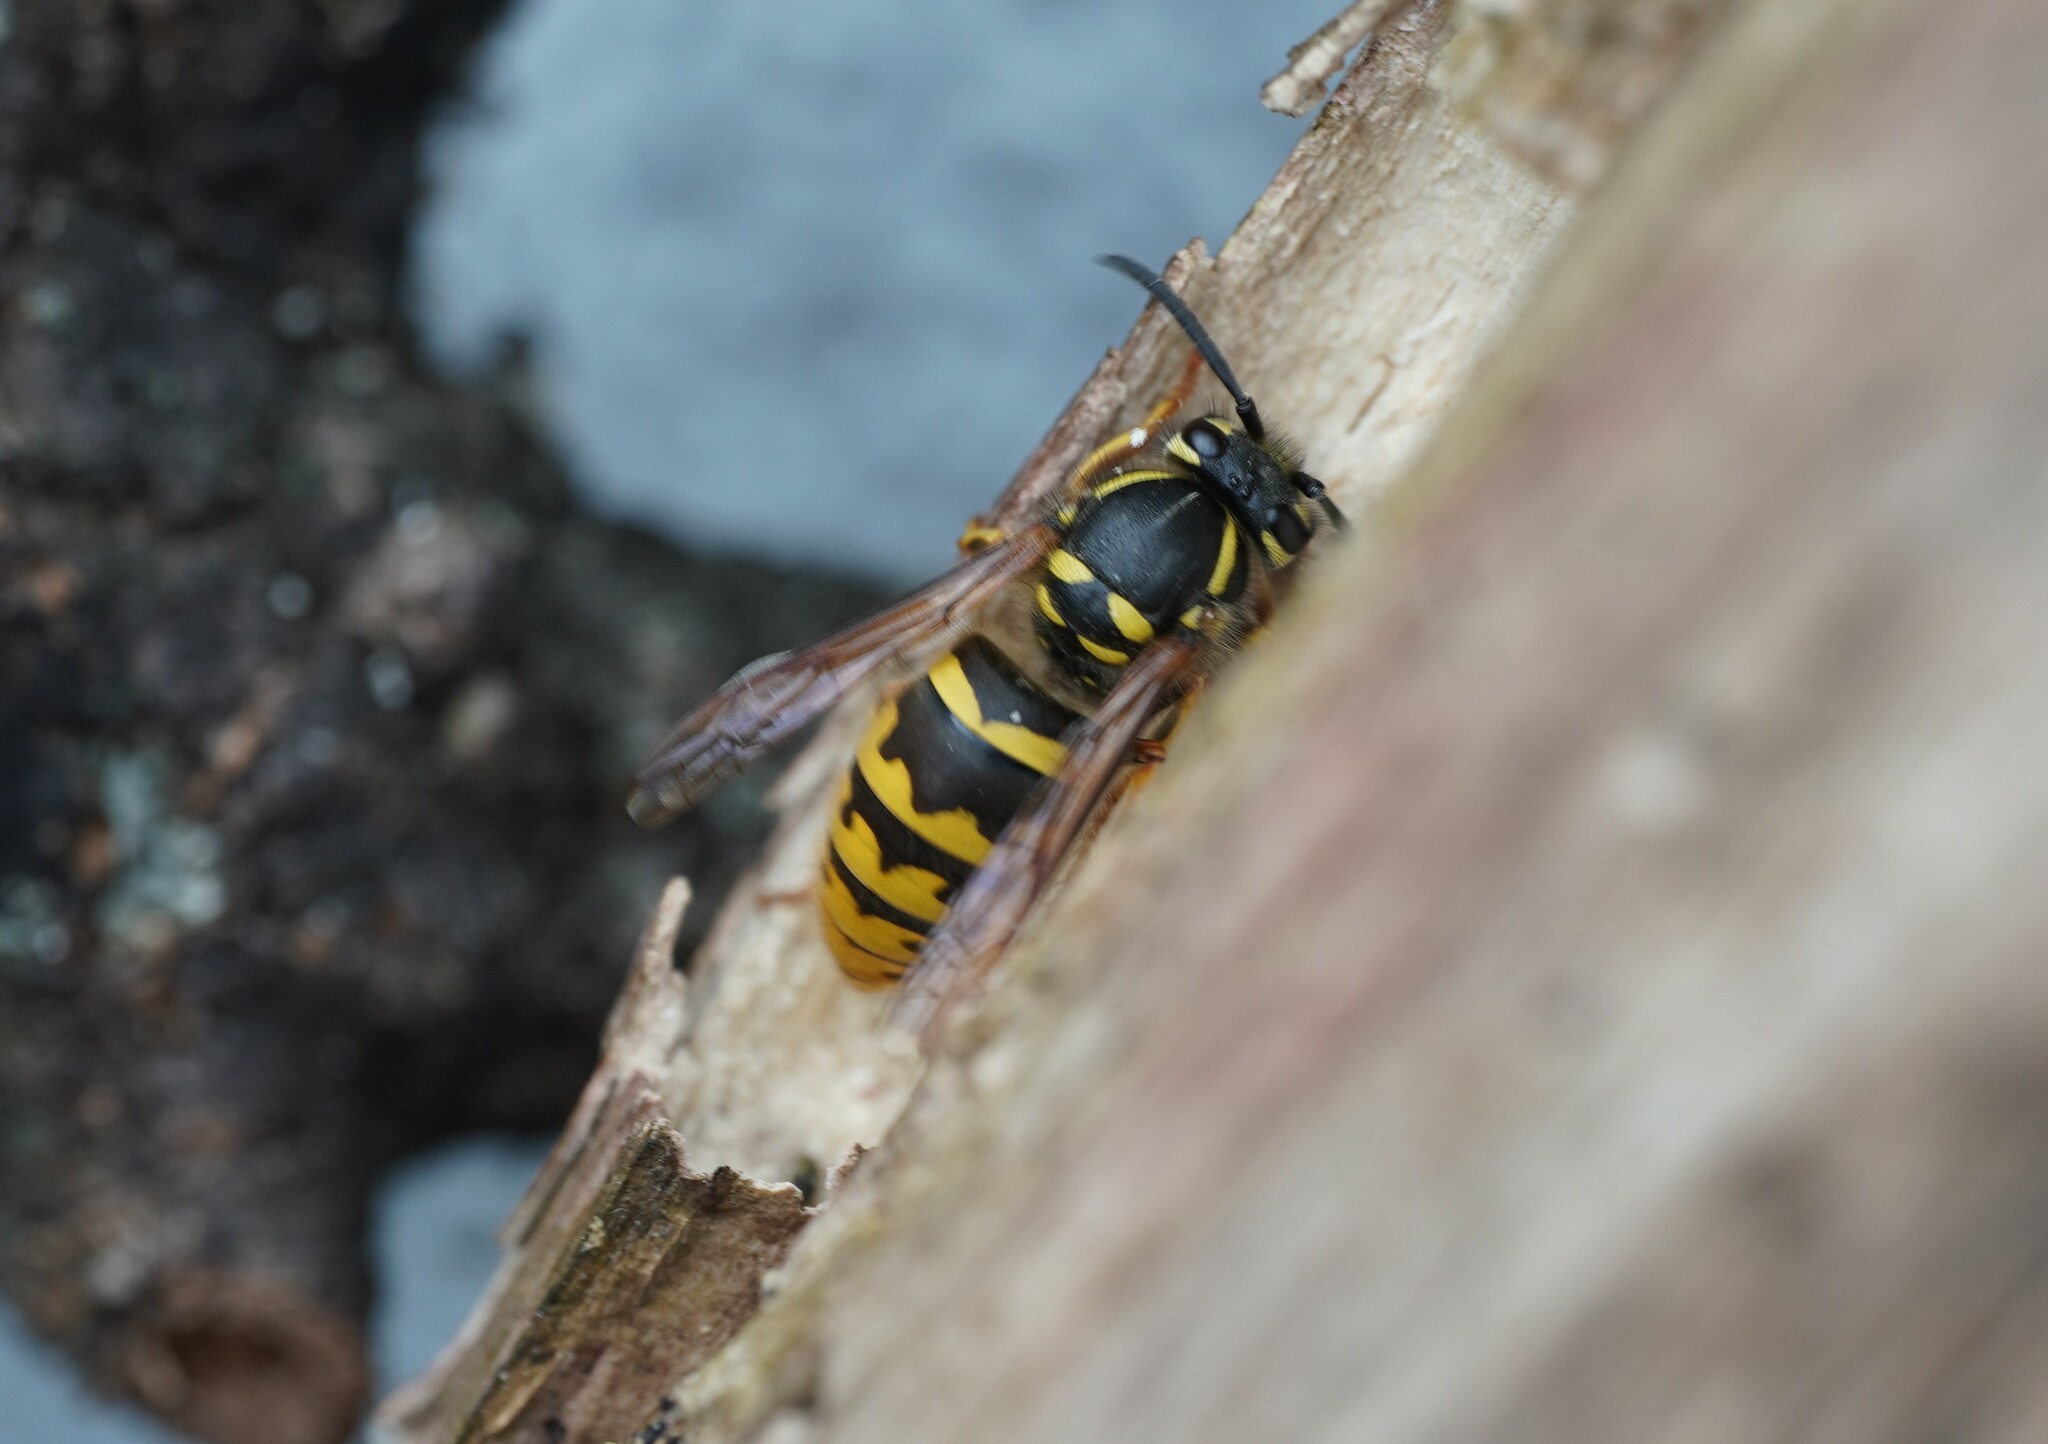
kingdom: Animalia
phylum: Arthropoda
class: Insecta
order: Hymenoptera
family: Vespidae
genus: Vespula
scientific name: Vespula vulgaris
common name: Common wasp
